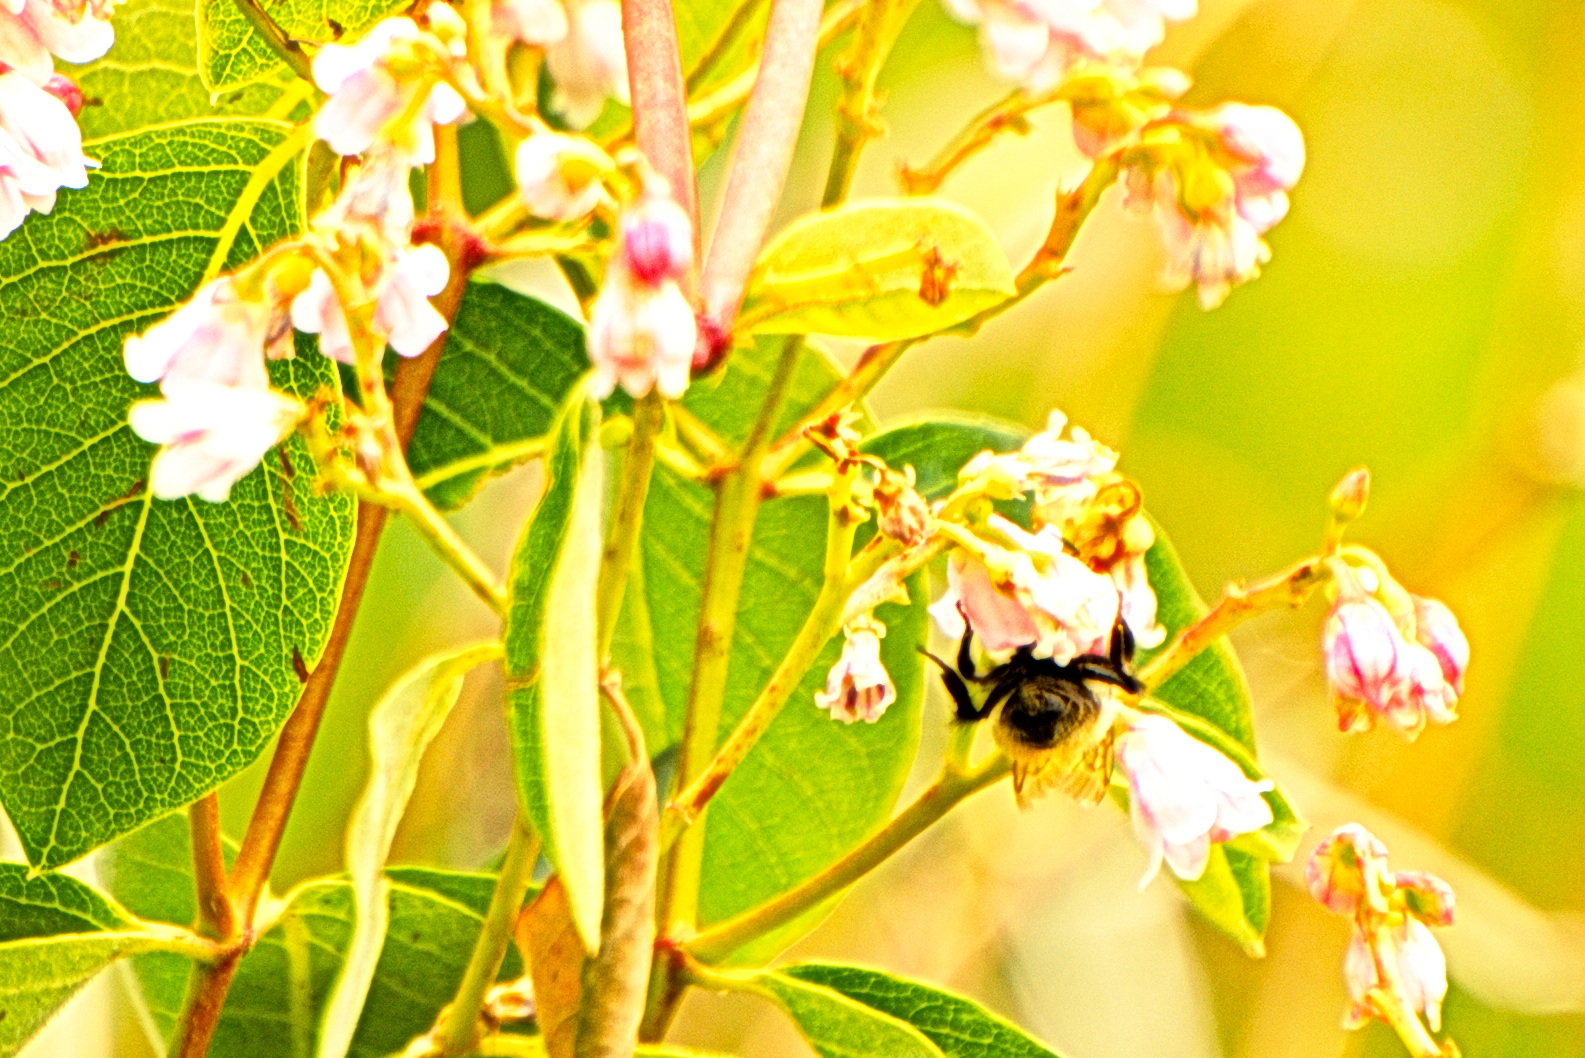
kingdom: Animalia
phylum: Arthropoda
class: Insecta
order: Hymenoptera
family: Apidae
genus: Bombus
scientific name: Bombus
